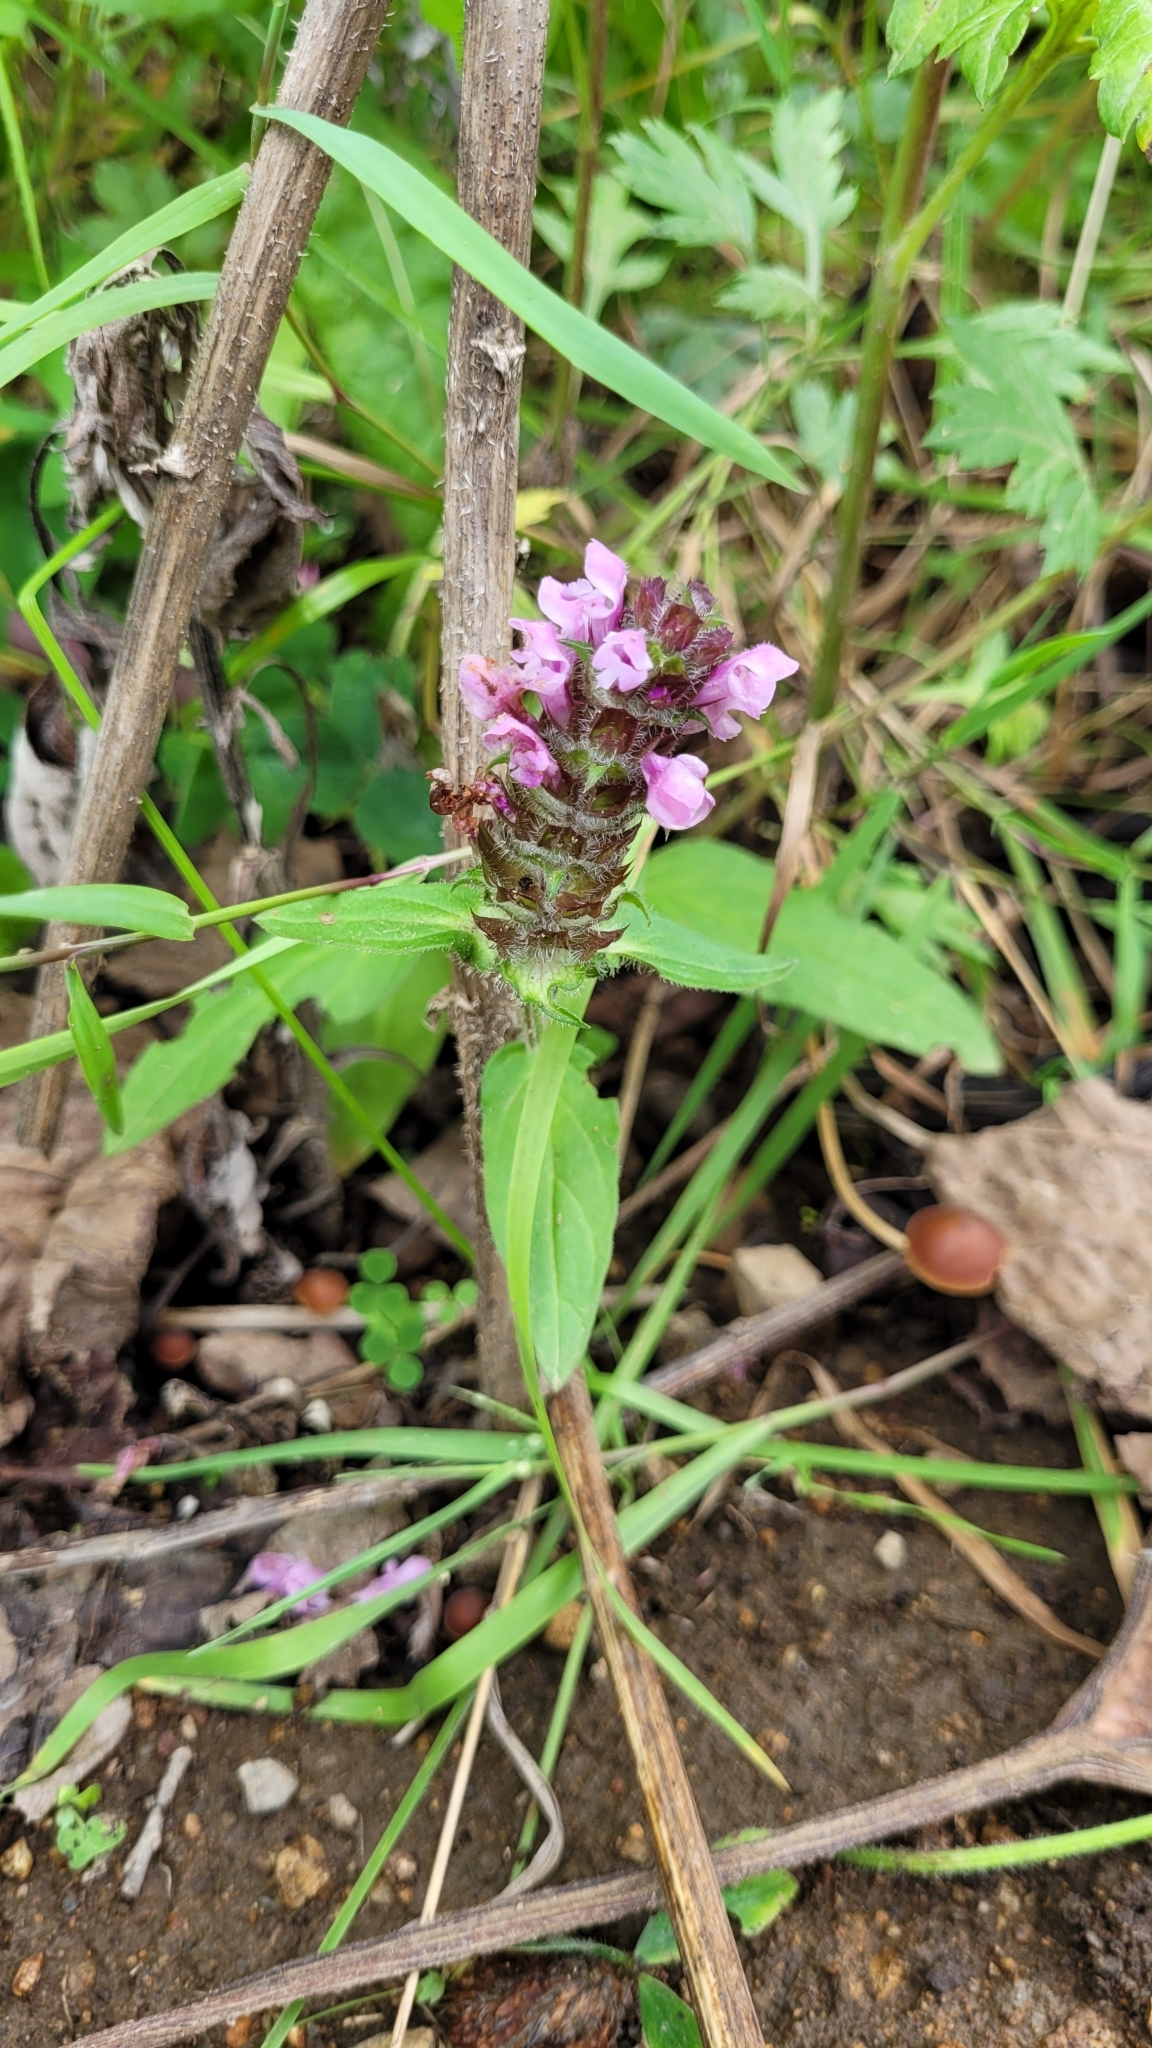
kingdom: Plantae
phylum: Tracheophyta
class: Magnoliopsida
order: Lamiales
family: Lamiaceae
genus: Prunella
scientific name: Prunella vulgaris
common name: Heal-all
